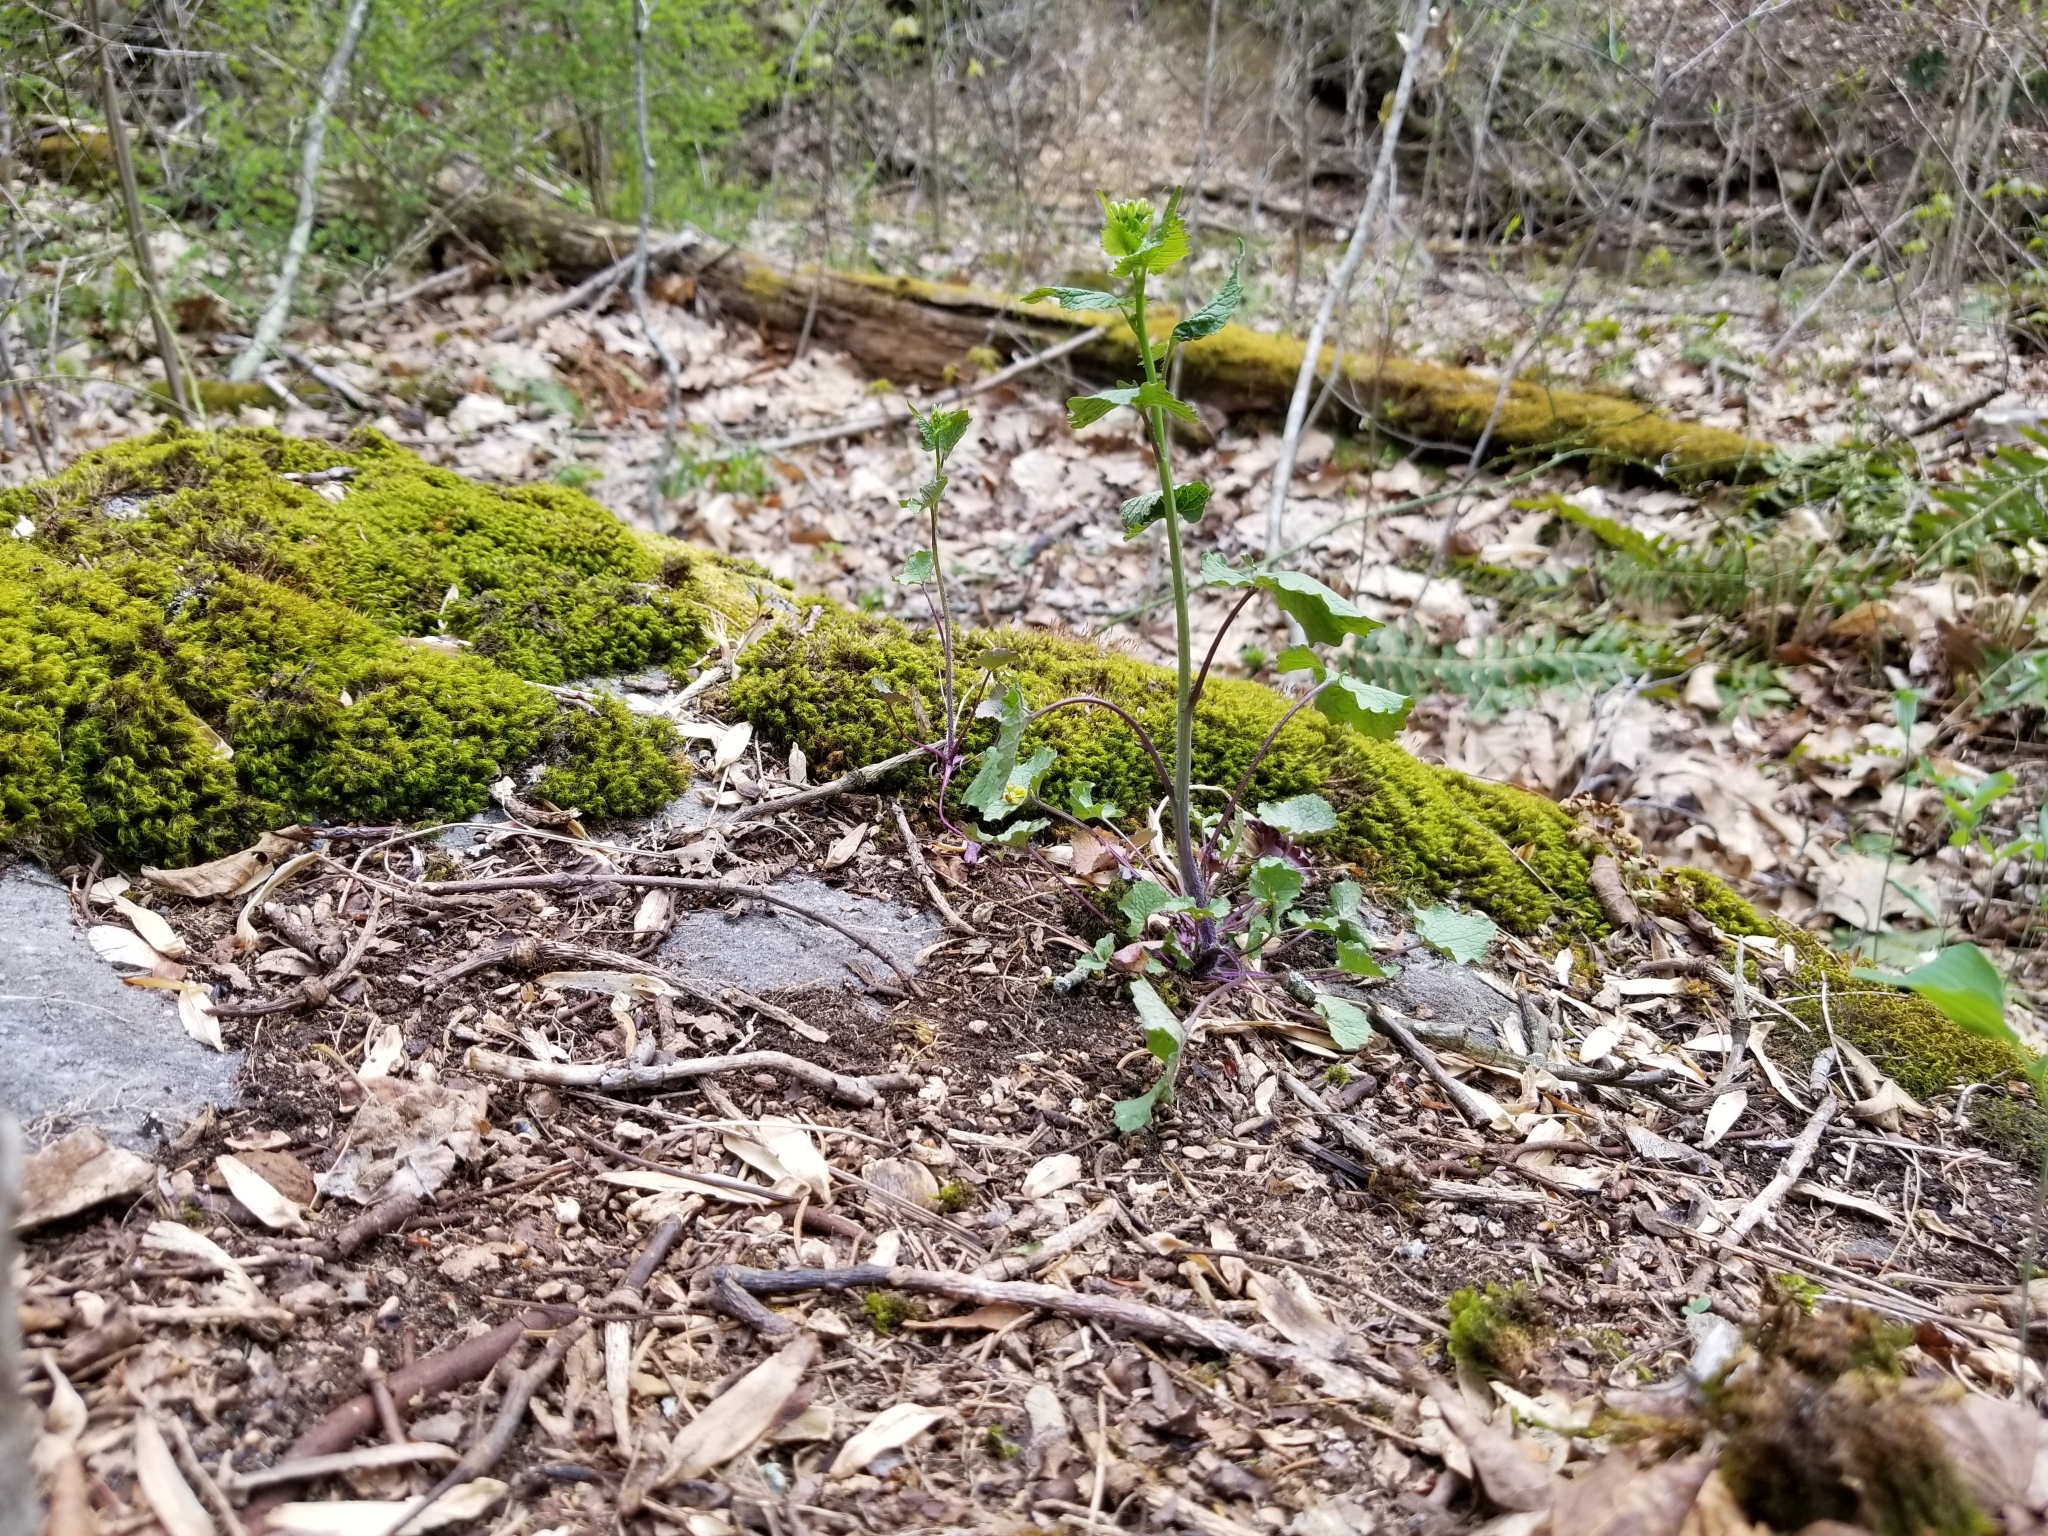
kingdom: Plantae
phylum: Tracheophyta
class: Magnoliopsida
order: Brassicales
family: Brassicaceae
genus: Alliaria
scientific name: Alliaria petiolata
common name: Garlic mustard
